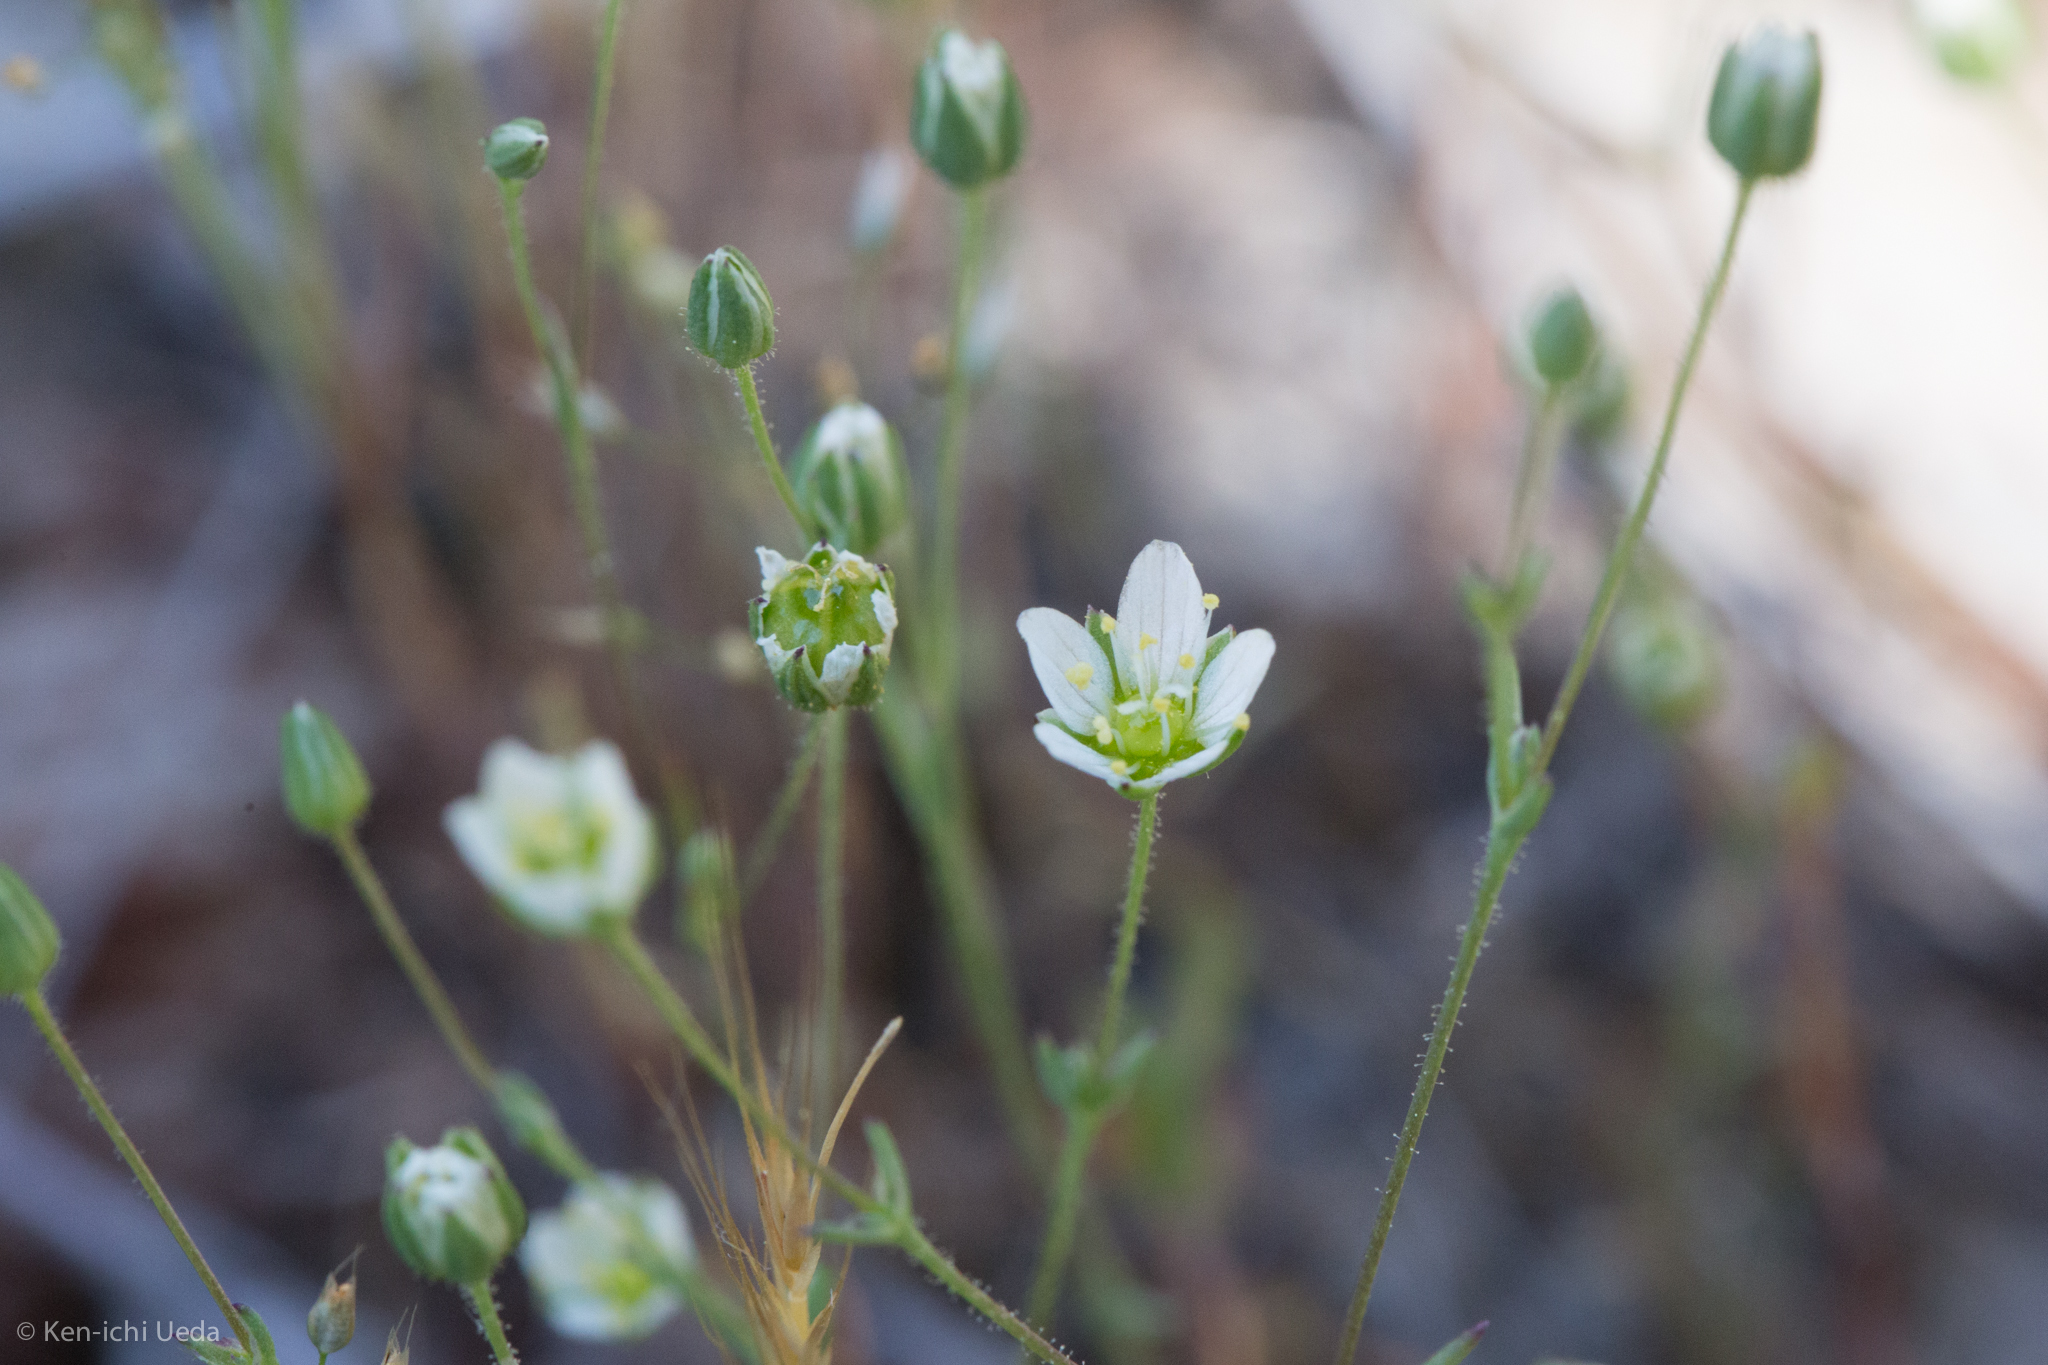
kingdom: Plantae
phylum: Tracheophyta
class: Magnoliopsida
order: Caryophyllales
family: Caryophyllaceae
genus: Sabulina
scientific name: Sabulina douglasii
